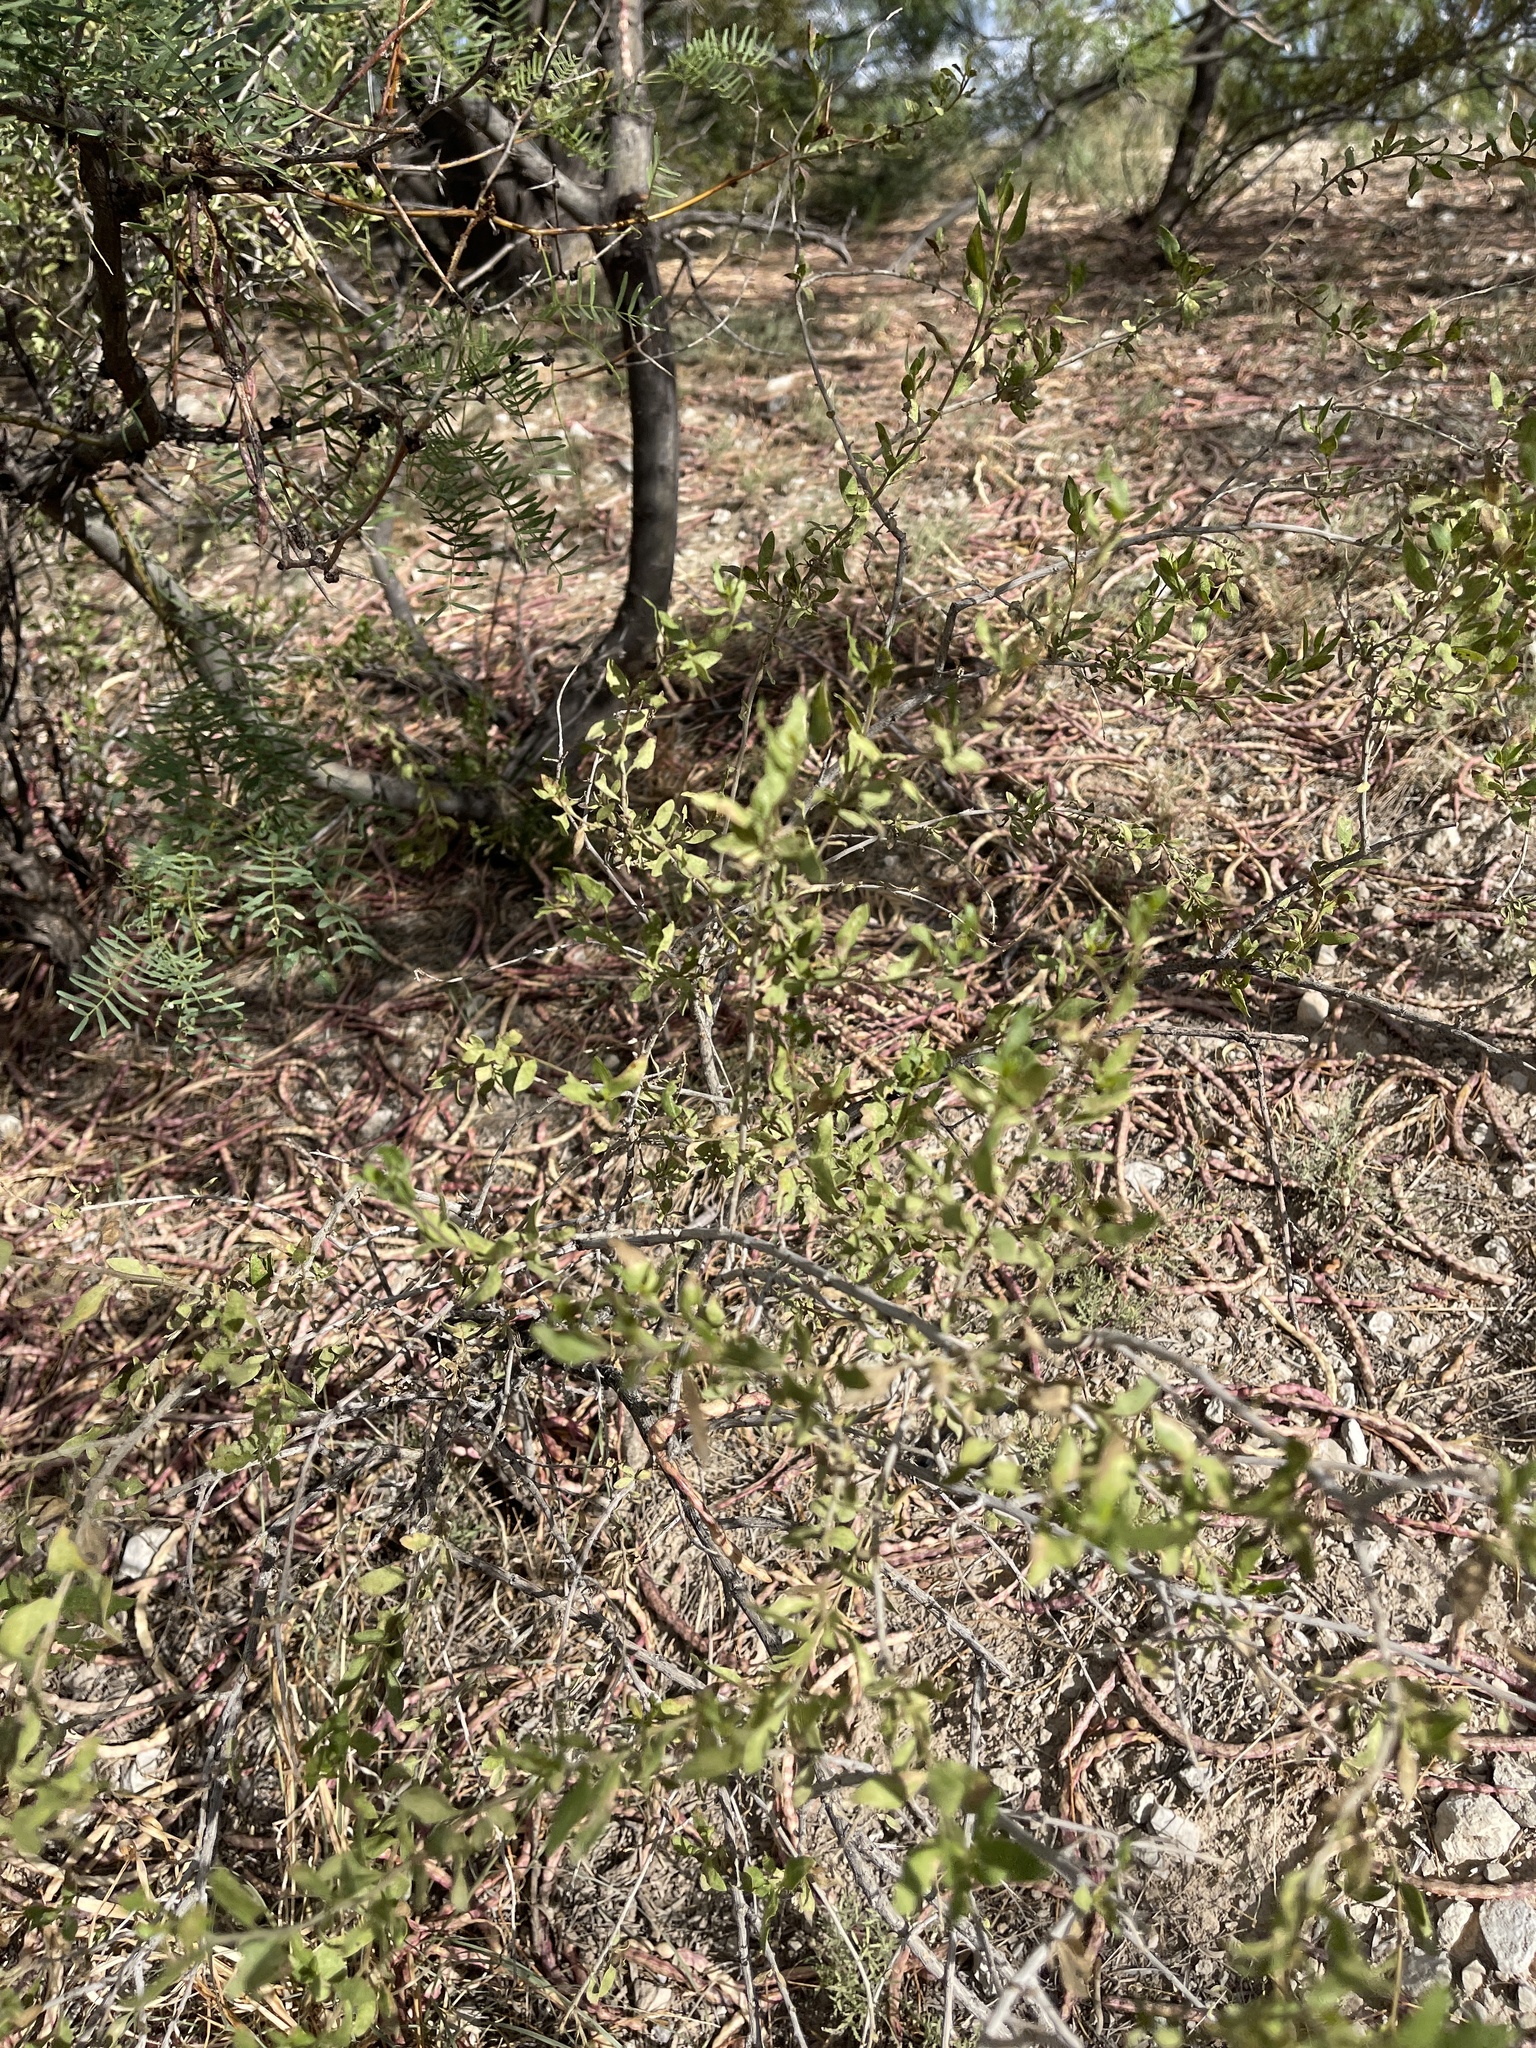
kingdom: Plantae
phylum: Tracheophyta
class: Magnoliopsida
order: Asterales
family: Asteraceae
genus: Flourensia
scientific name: Flourensia cernua
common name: Varnishbush
